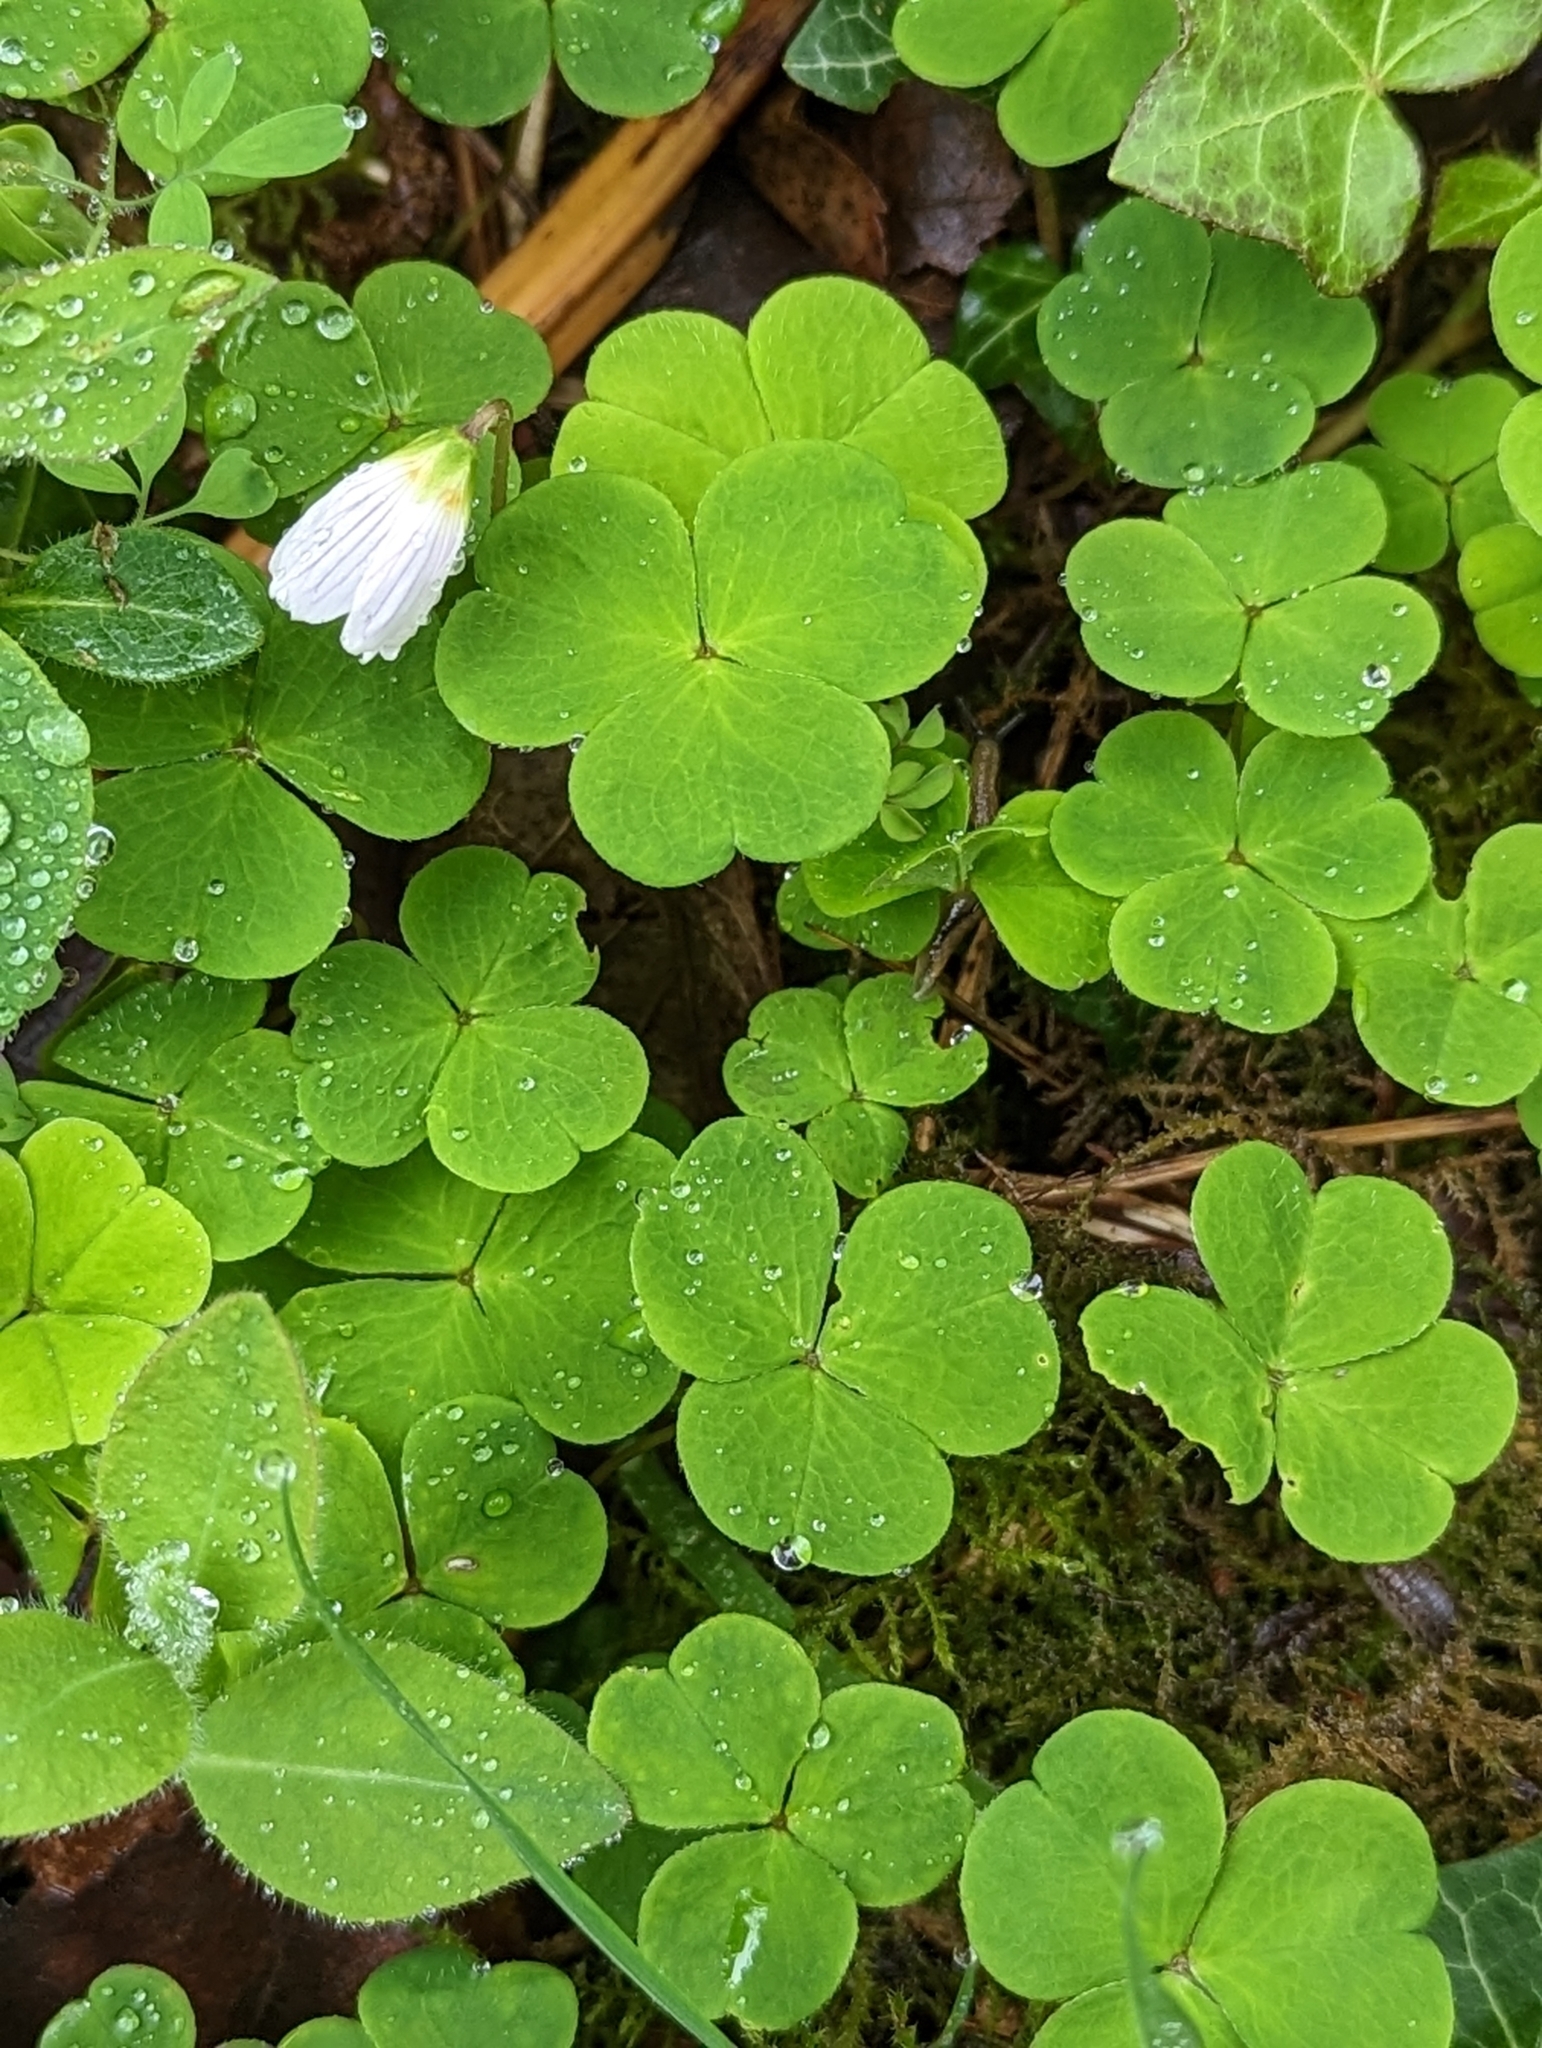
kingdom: Plantae
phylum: Tracheophyta
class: Magnoliopsida
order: Oxalidales
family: Oxalidaceae
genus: Oxalis
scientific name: Oxalis acetosella
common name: Wood-sorrel
